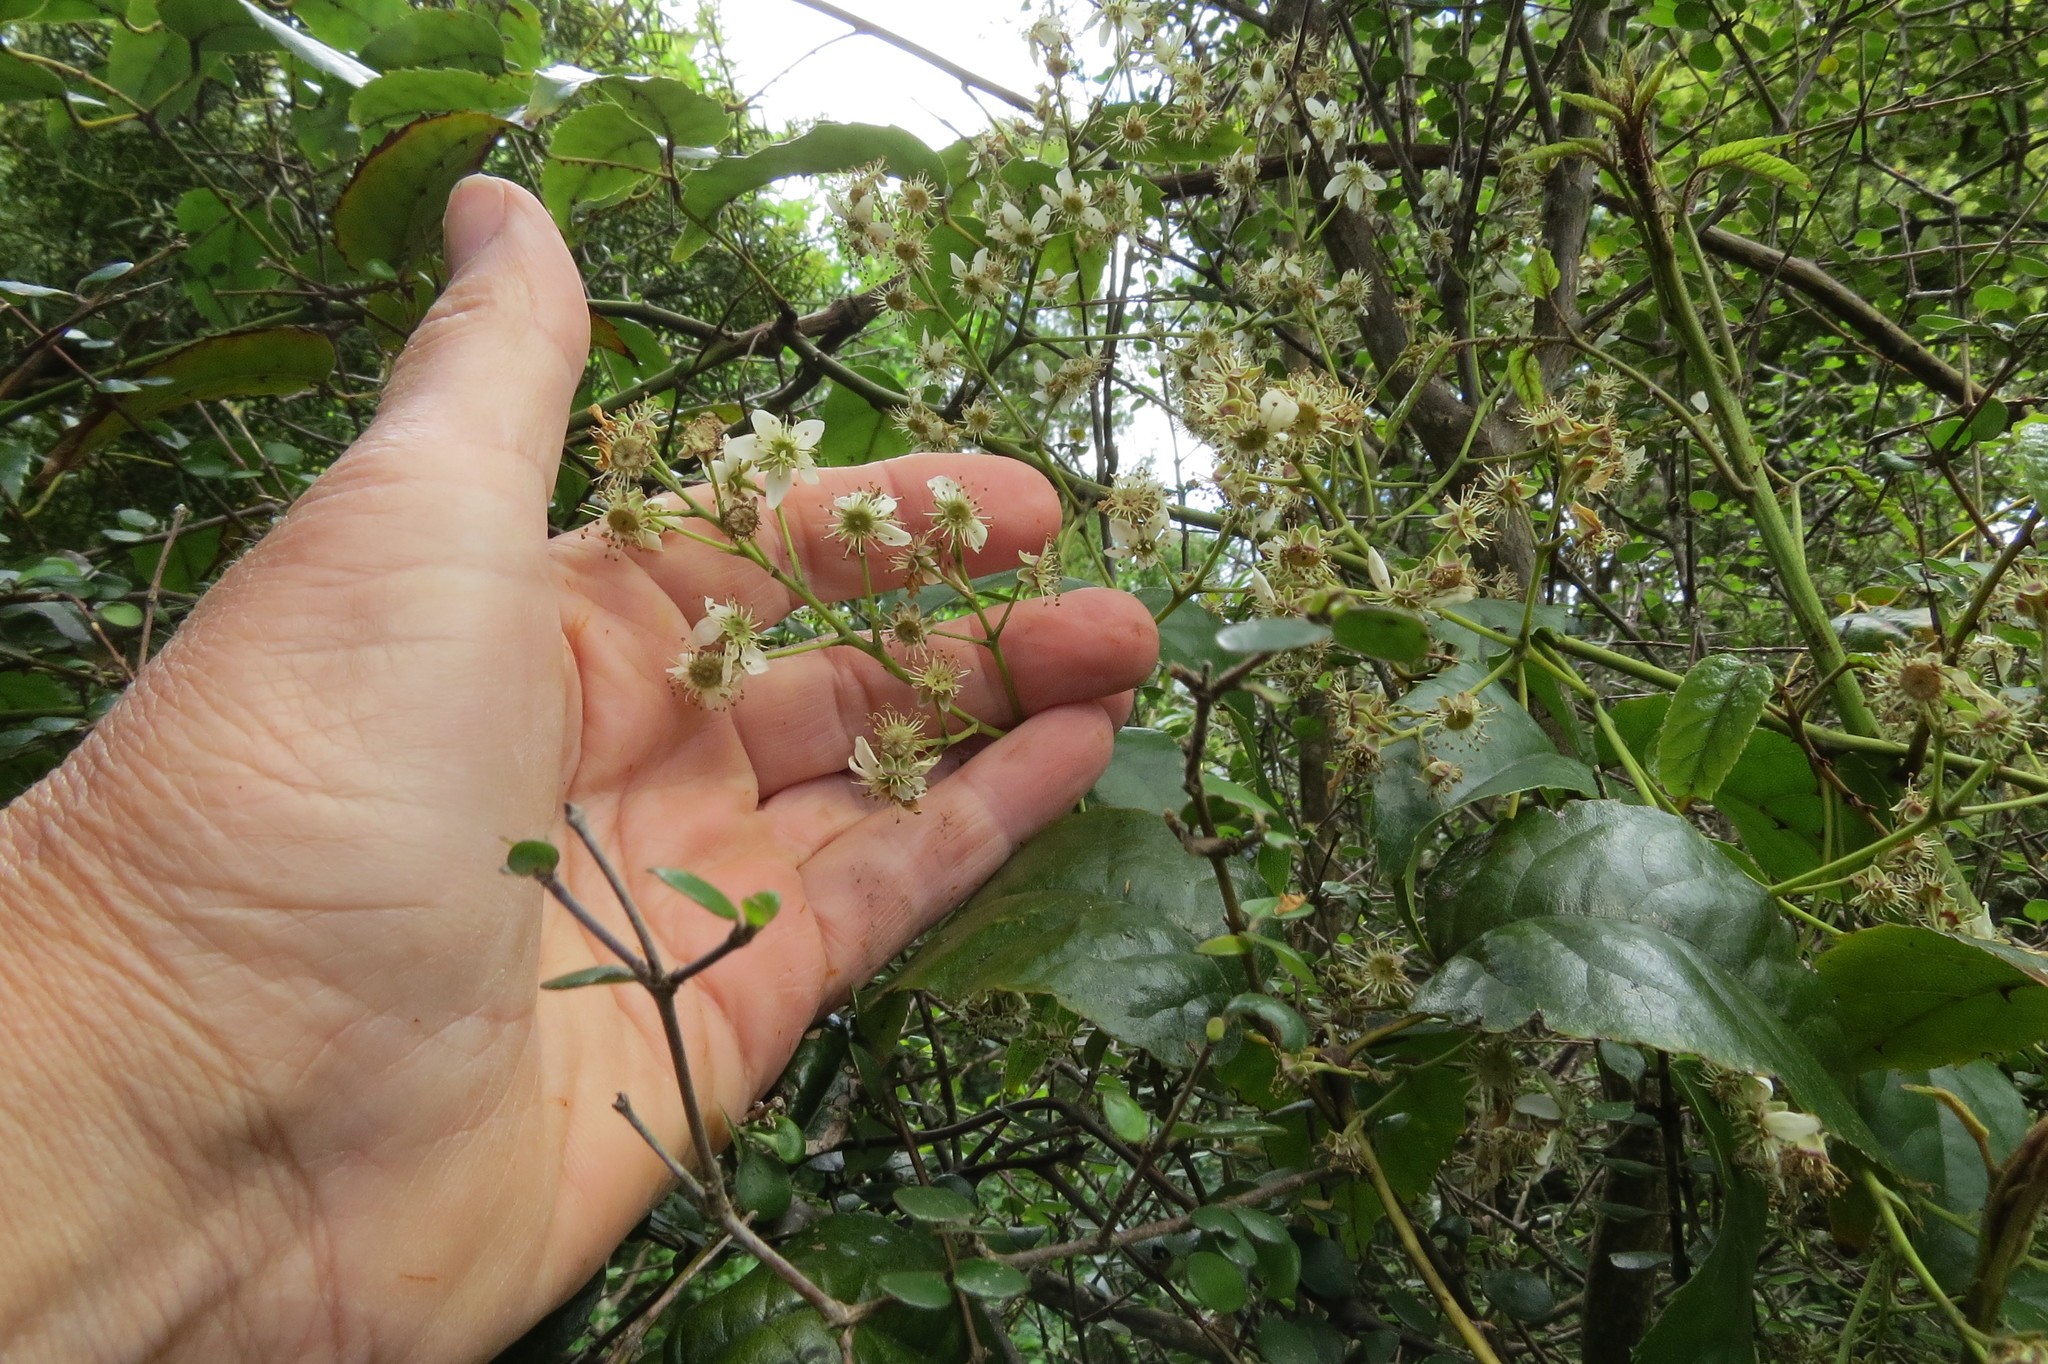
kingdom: Plantae
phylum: Tracheophyta
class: Magnoliopsida
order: Rosales
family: Rosaceae
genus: Rubus
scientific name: Rubus cissoides
